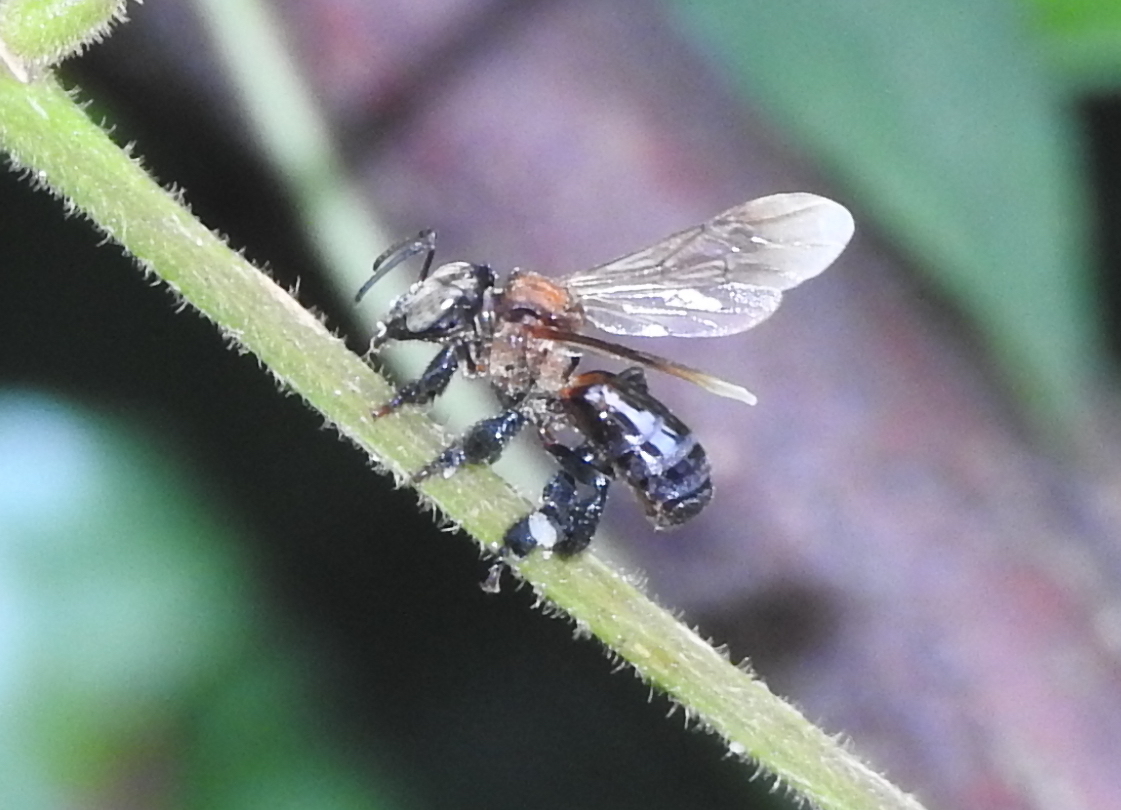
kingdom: Animalia
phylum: Arthropoda
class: Insecta
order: Hymenoptera
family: Apidae
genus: Geniotrigona
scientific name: Geniotrigona thoracica
